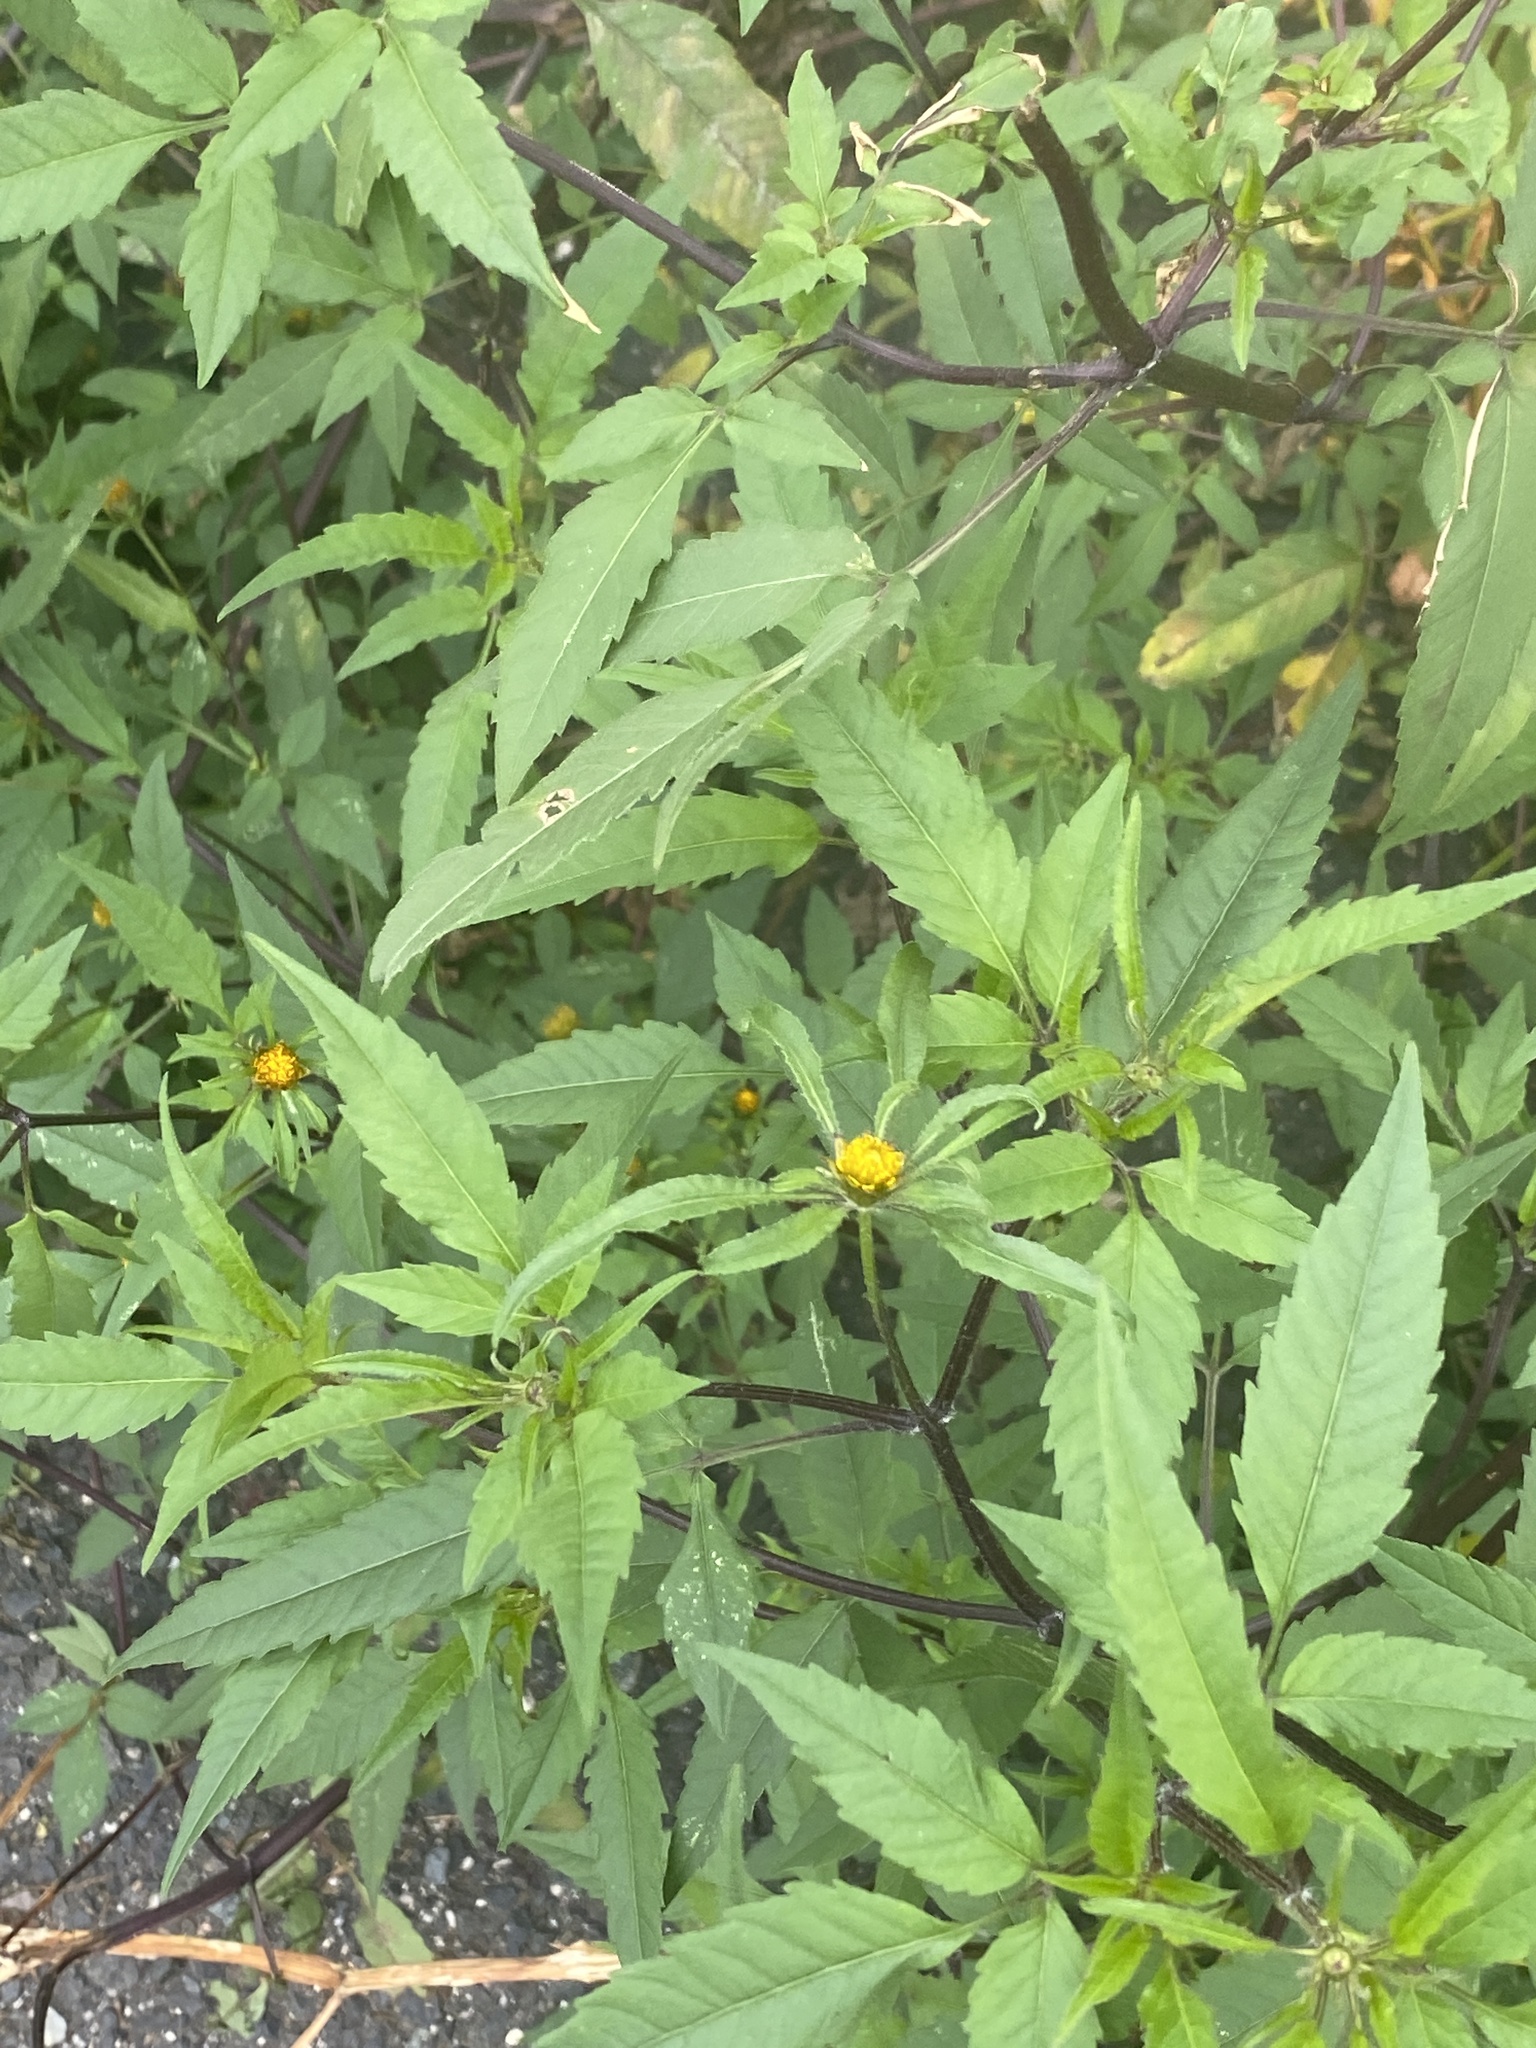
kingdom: Plantae
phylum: Tracheophyta
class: Magnoliopsida
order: Asterales
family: Asteraceae
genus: Bidens
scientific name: Bidens frondosa
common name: Beggarticks
